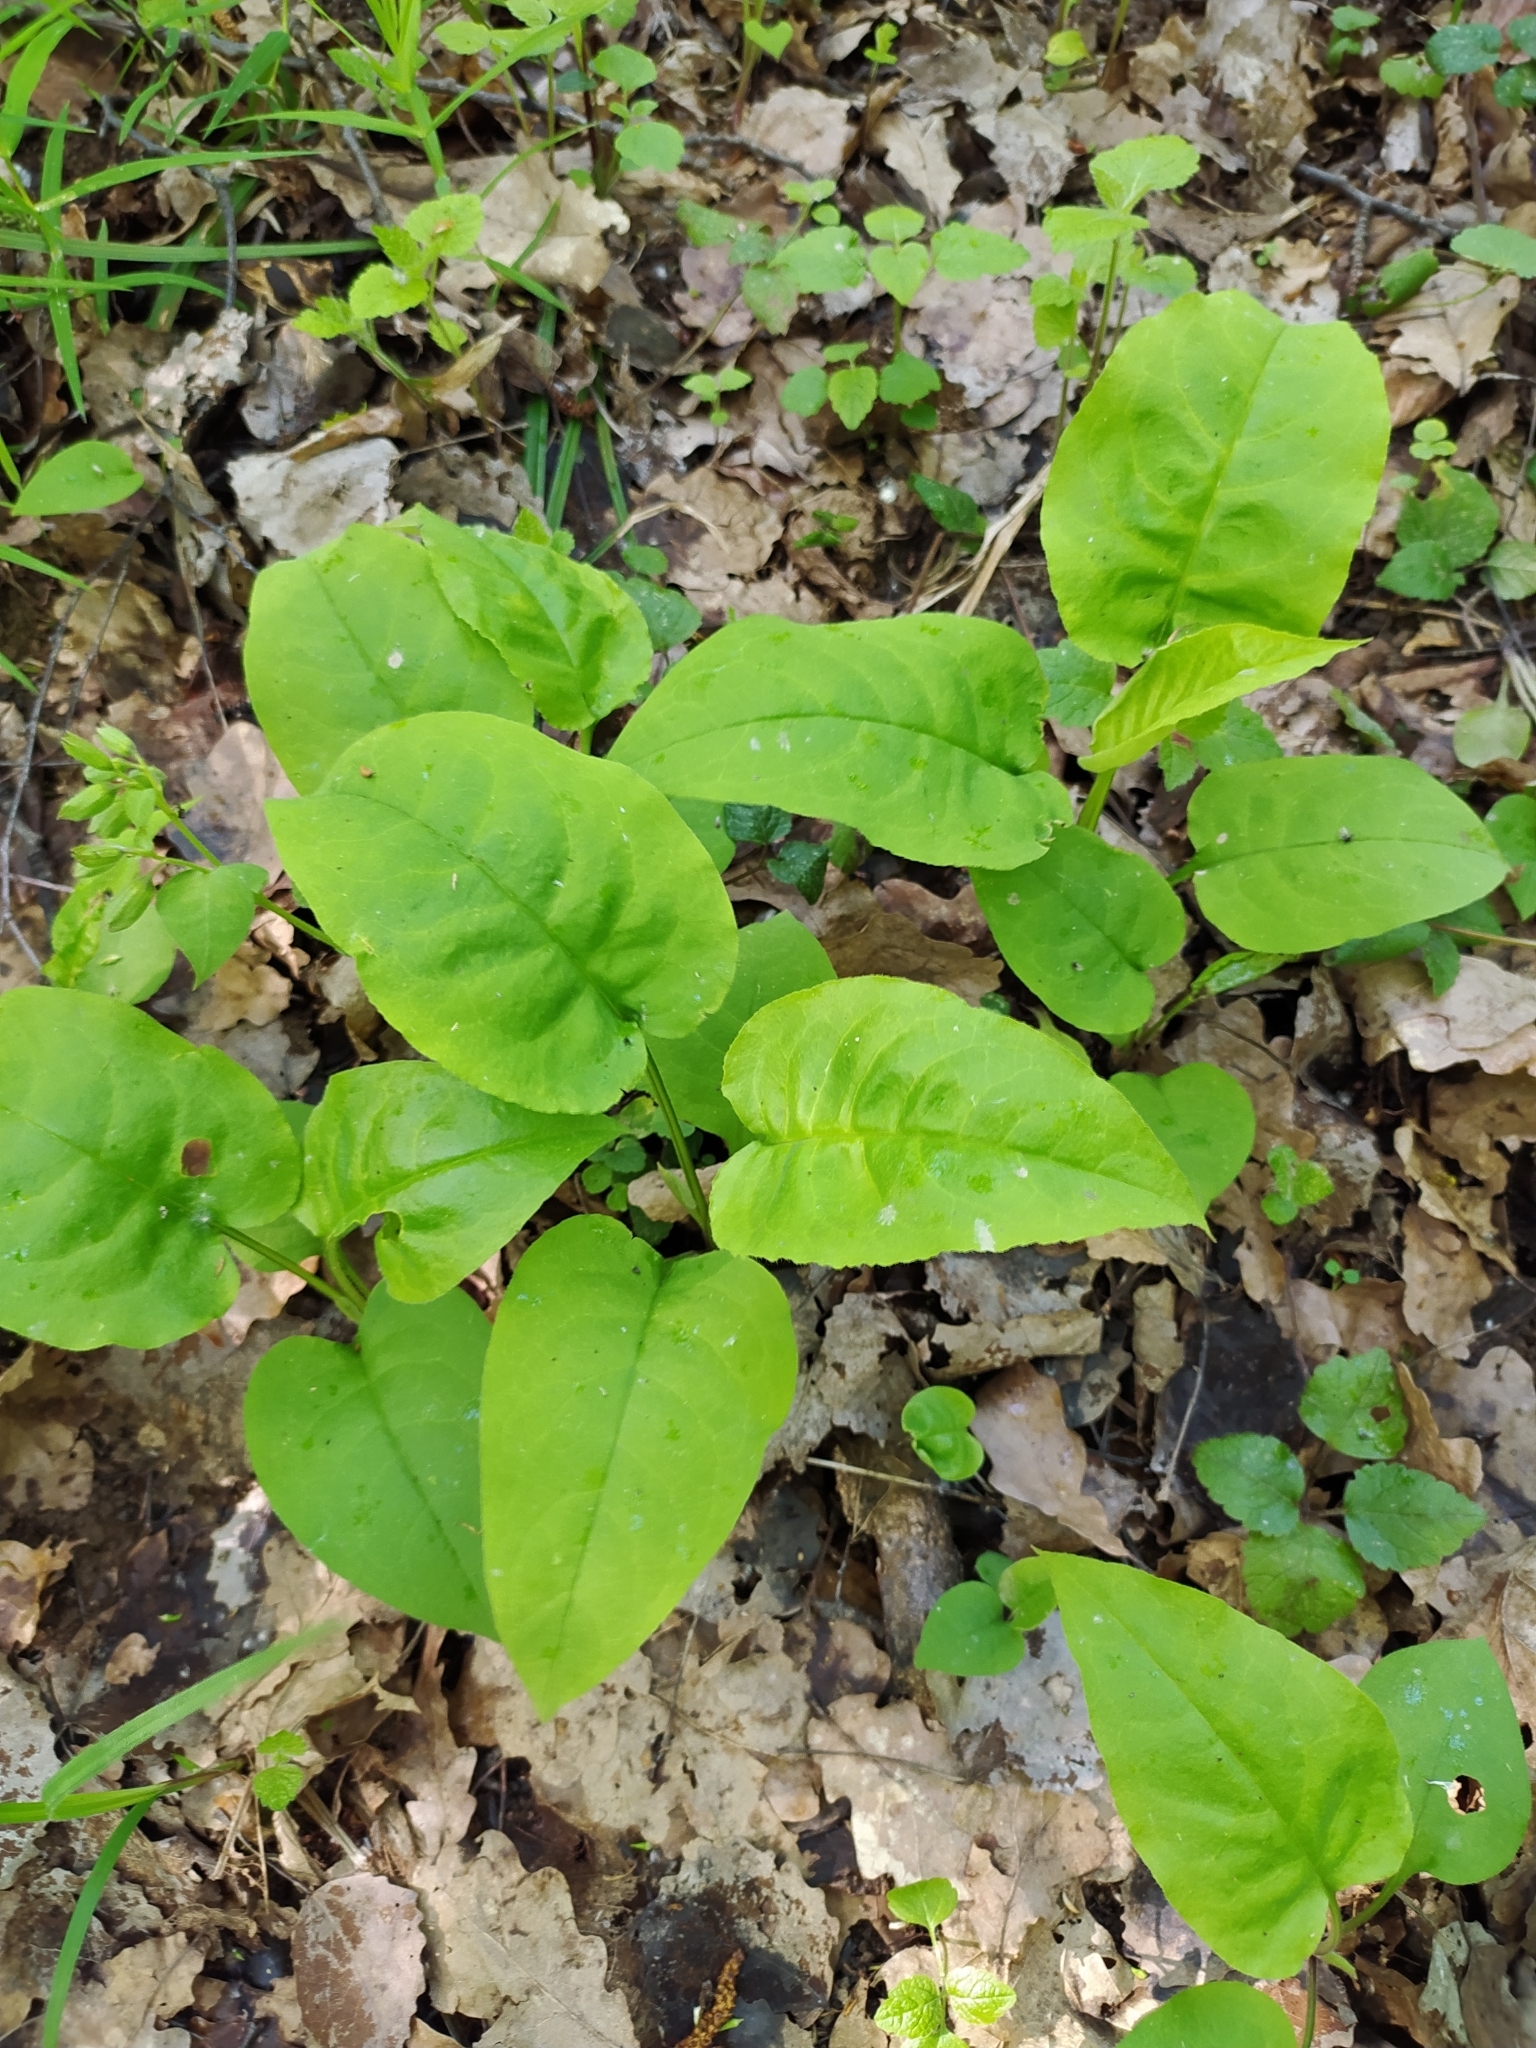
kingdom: Plantae
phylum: Tracheophyta
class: Magnoliopsida
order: Boraginales
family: Boraginaceae
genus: Pulmonaria
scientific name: Pulmonaria obscura
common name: Suffolk lungwort
